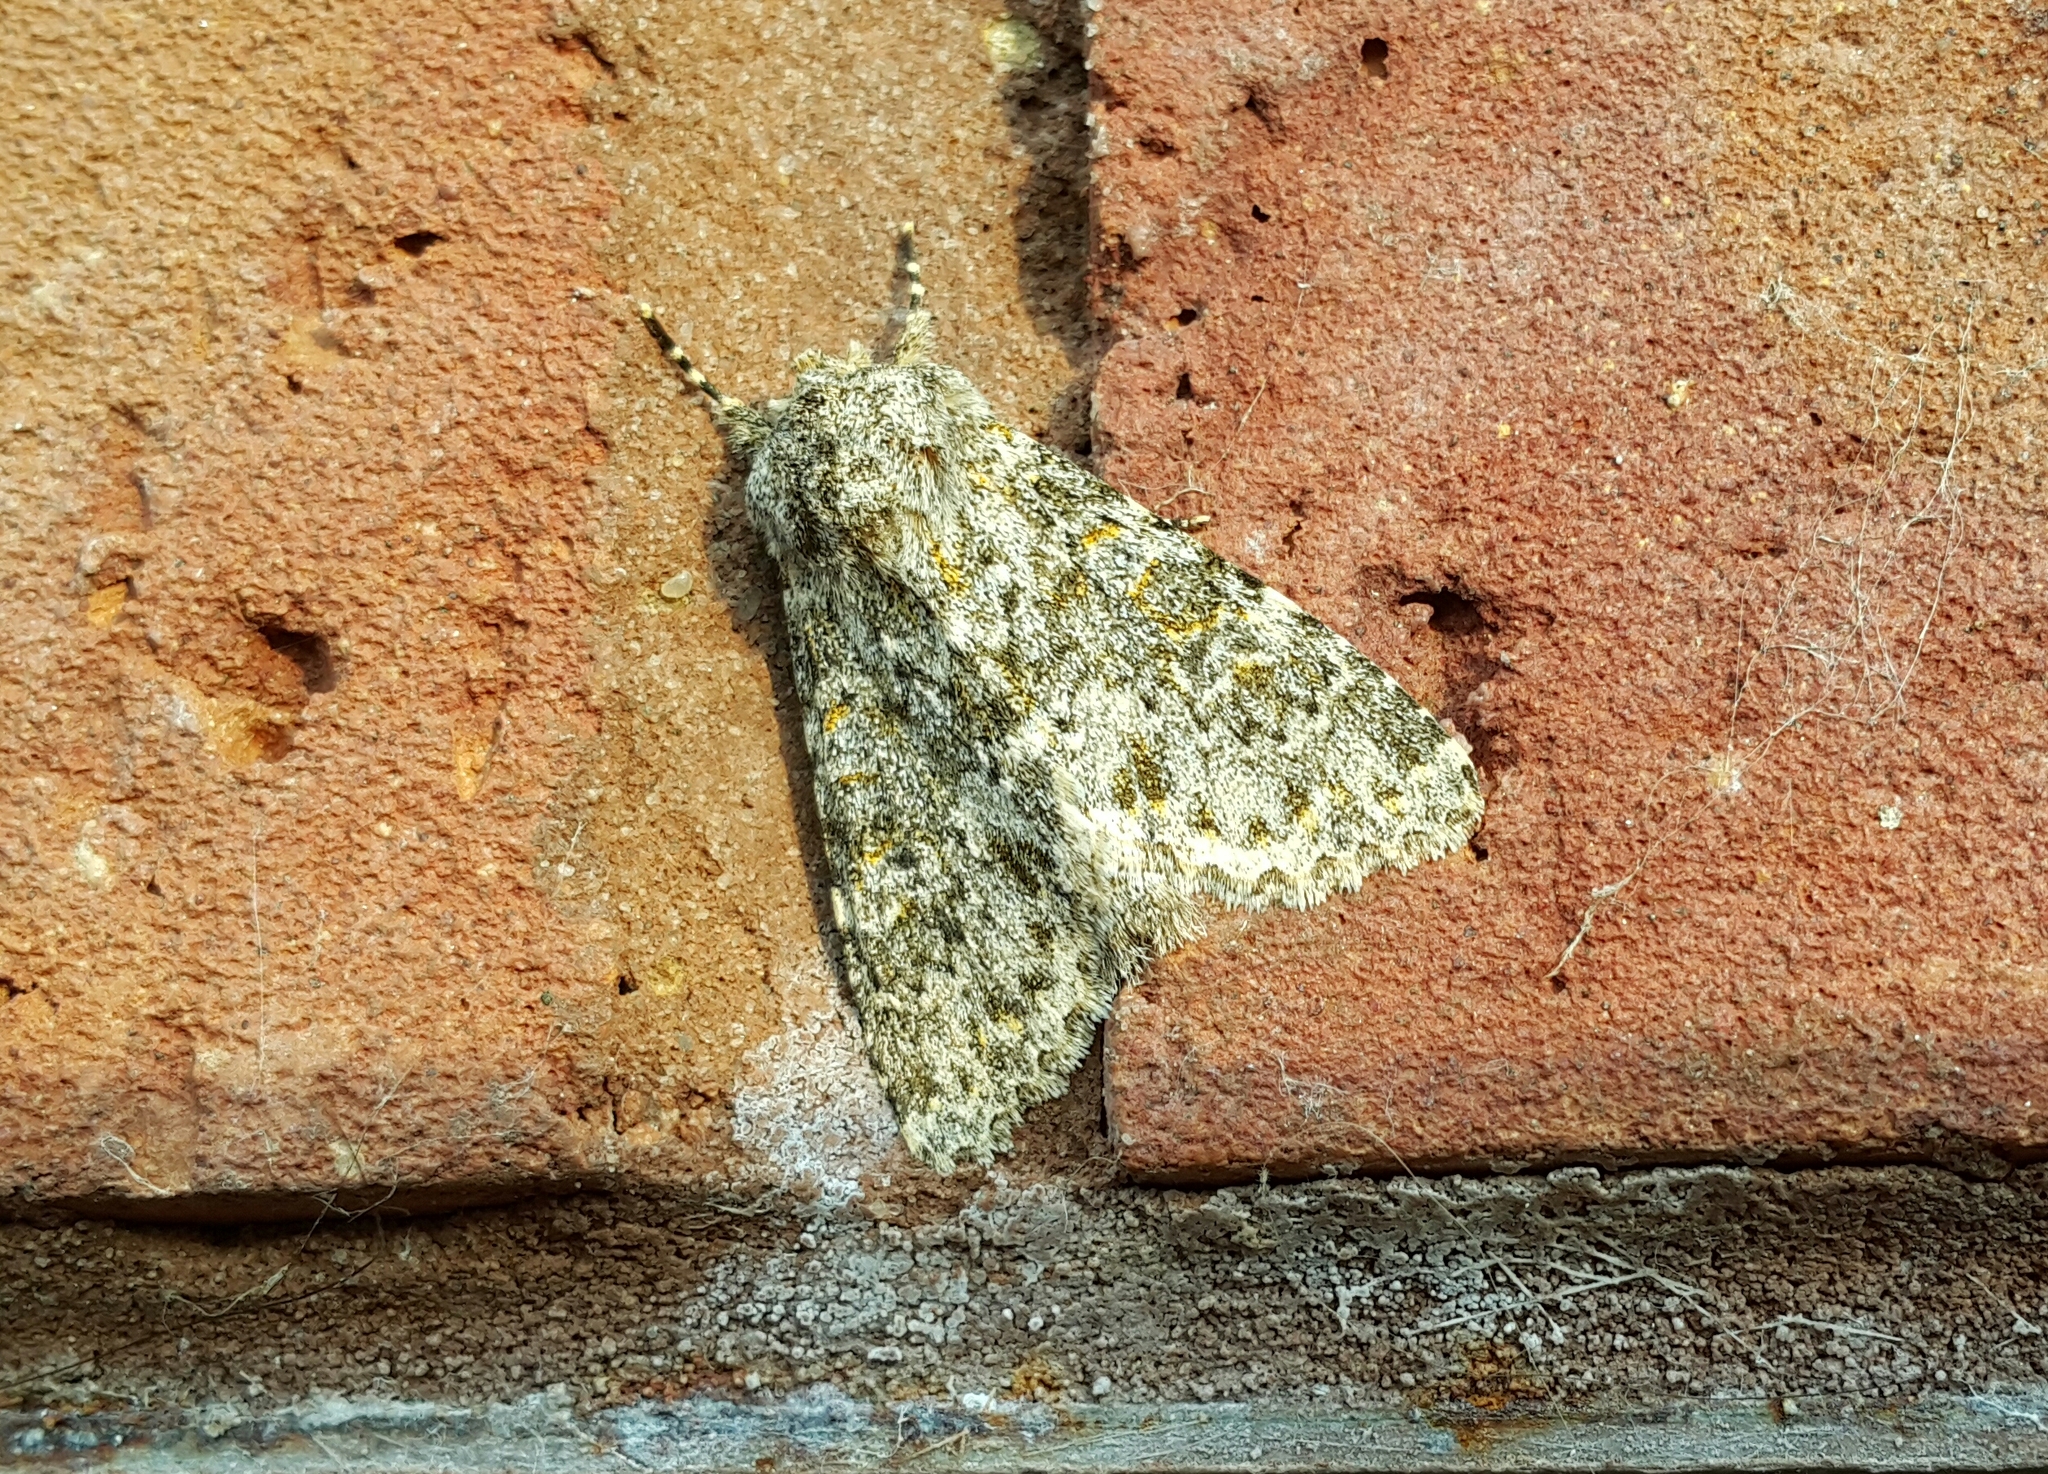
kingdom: Animalia
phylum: Arthropoda
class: Insecta
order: Lepidoptera
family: Noctuidae
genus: Polymixis
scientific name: Polymixis flavicincta
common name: Large ranunculus
